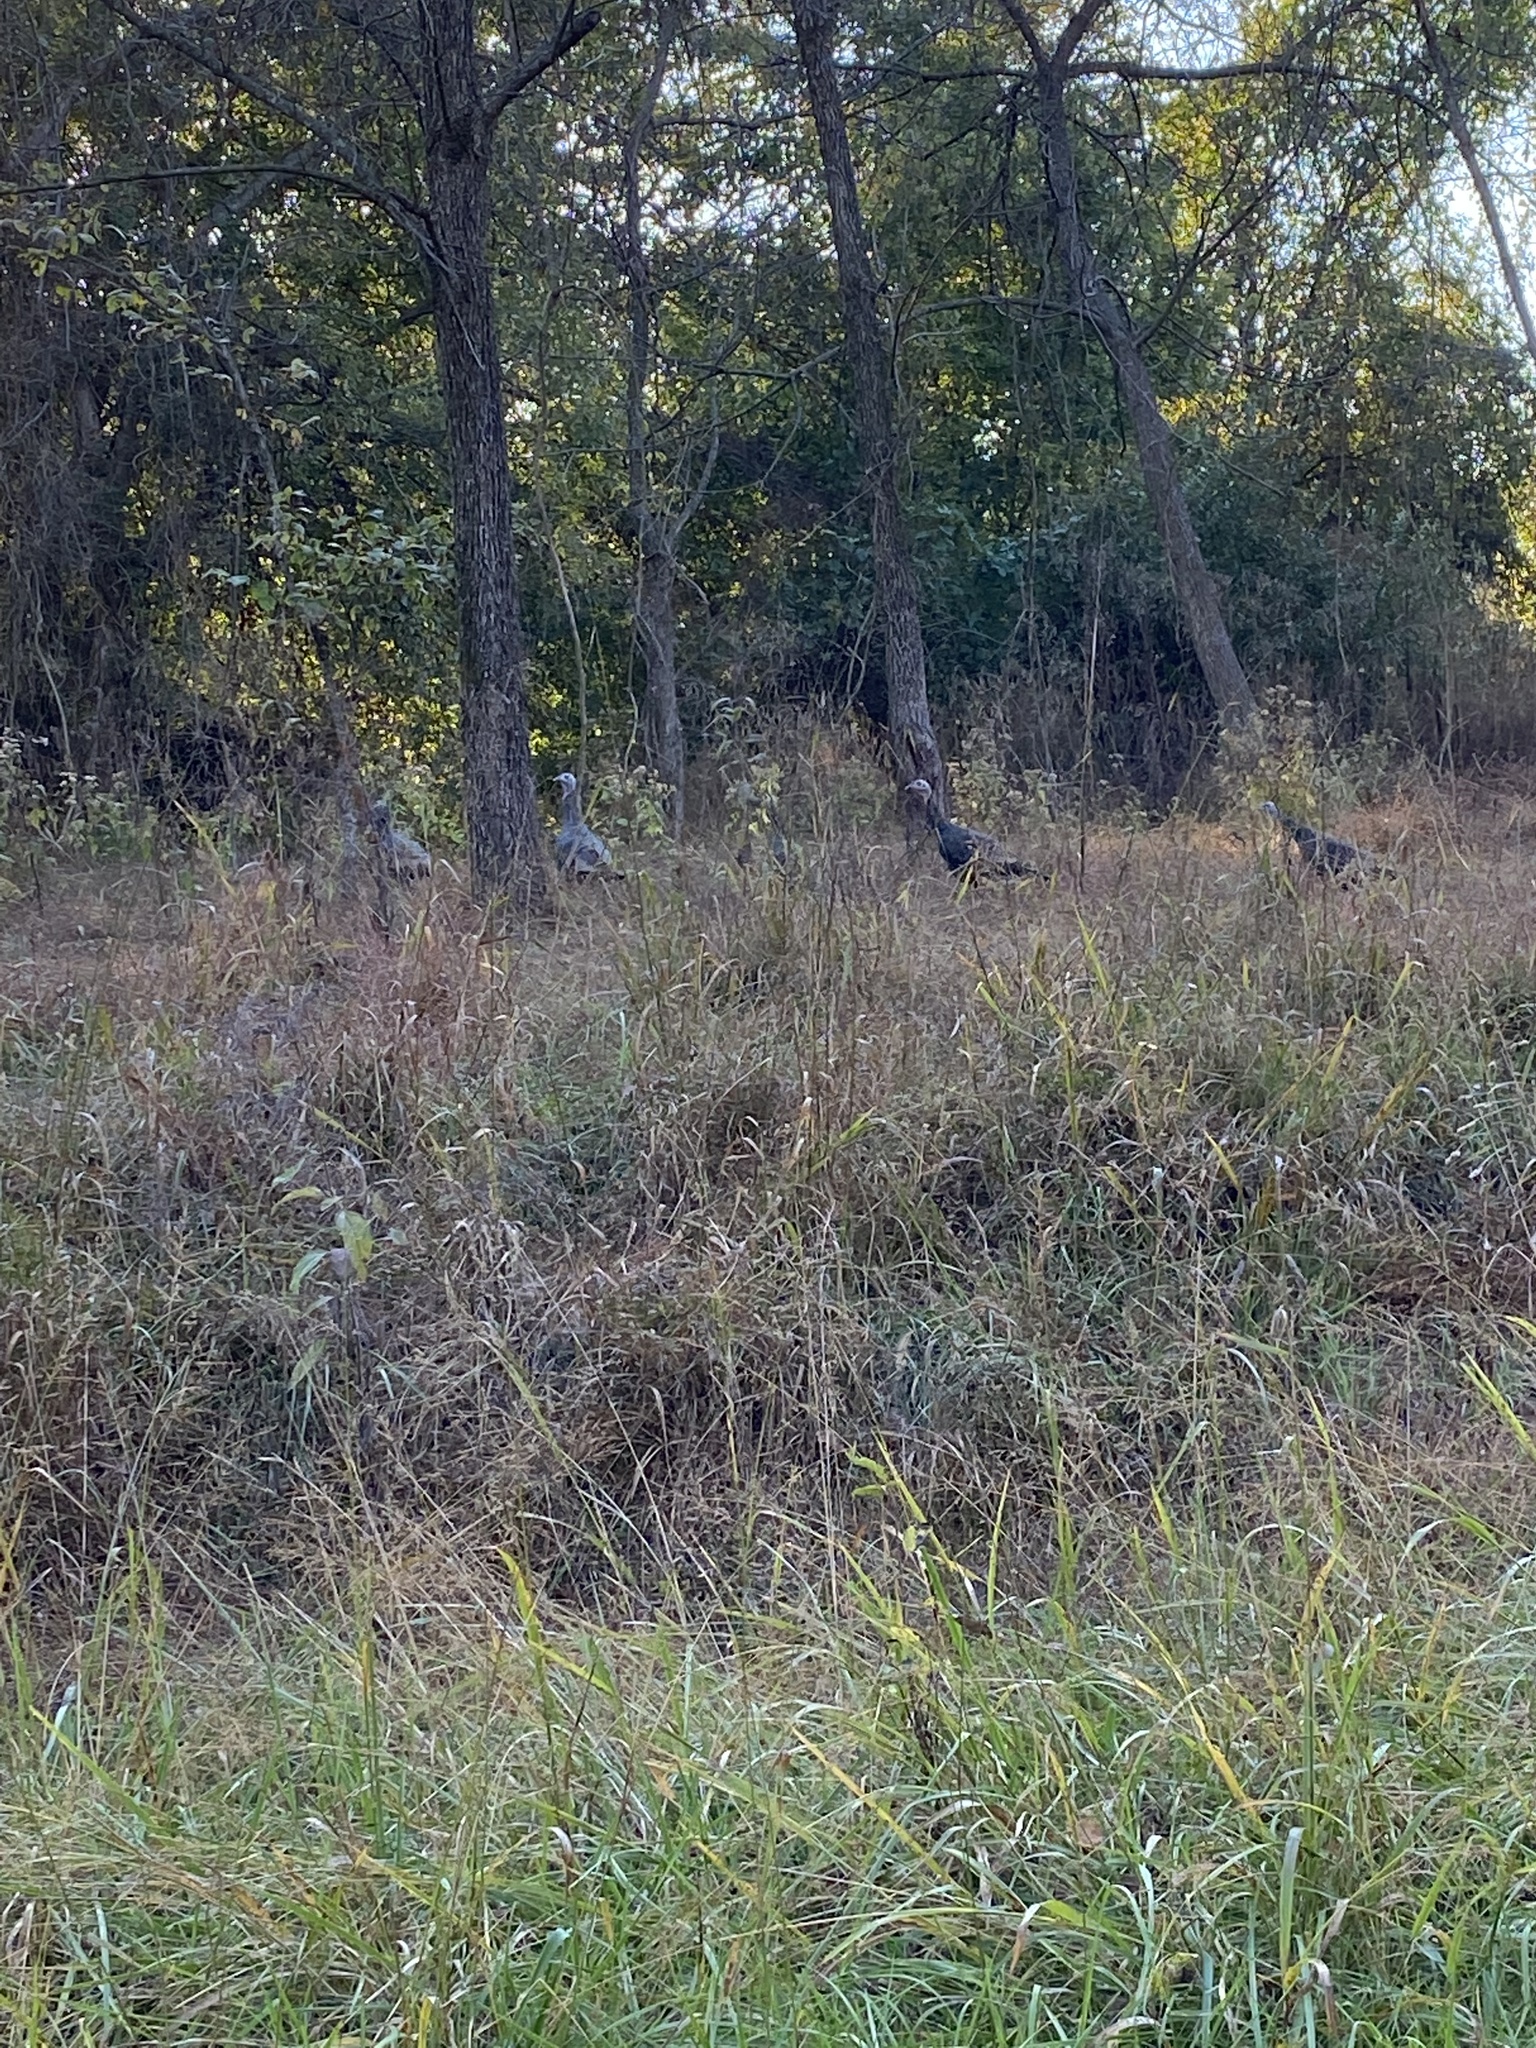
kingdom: Animalia
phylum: Chordata
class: Aves
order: Galliformes
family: Phasianidae
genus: Meleagris
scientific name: Meleagris gallopavo
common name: Wild turkey
